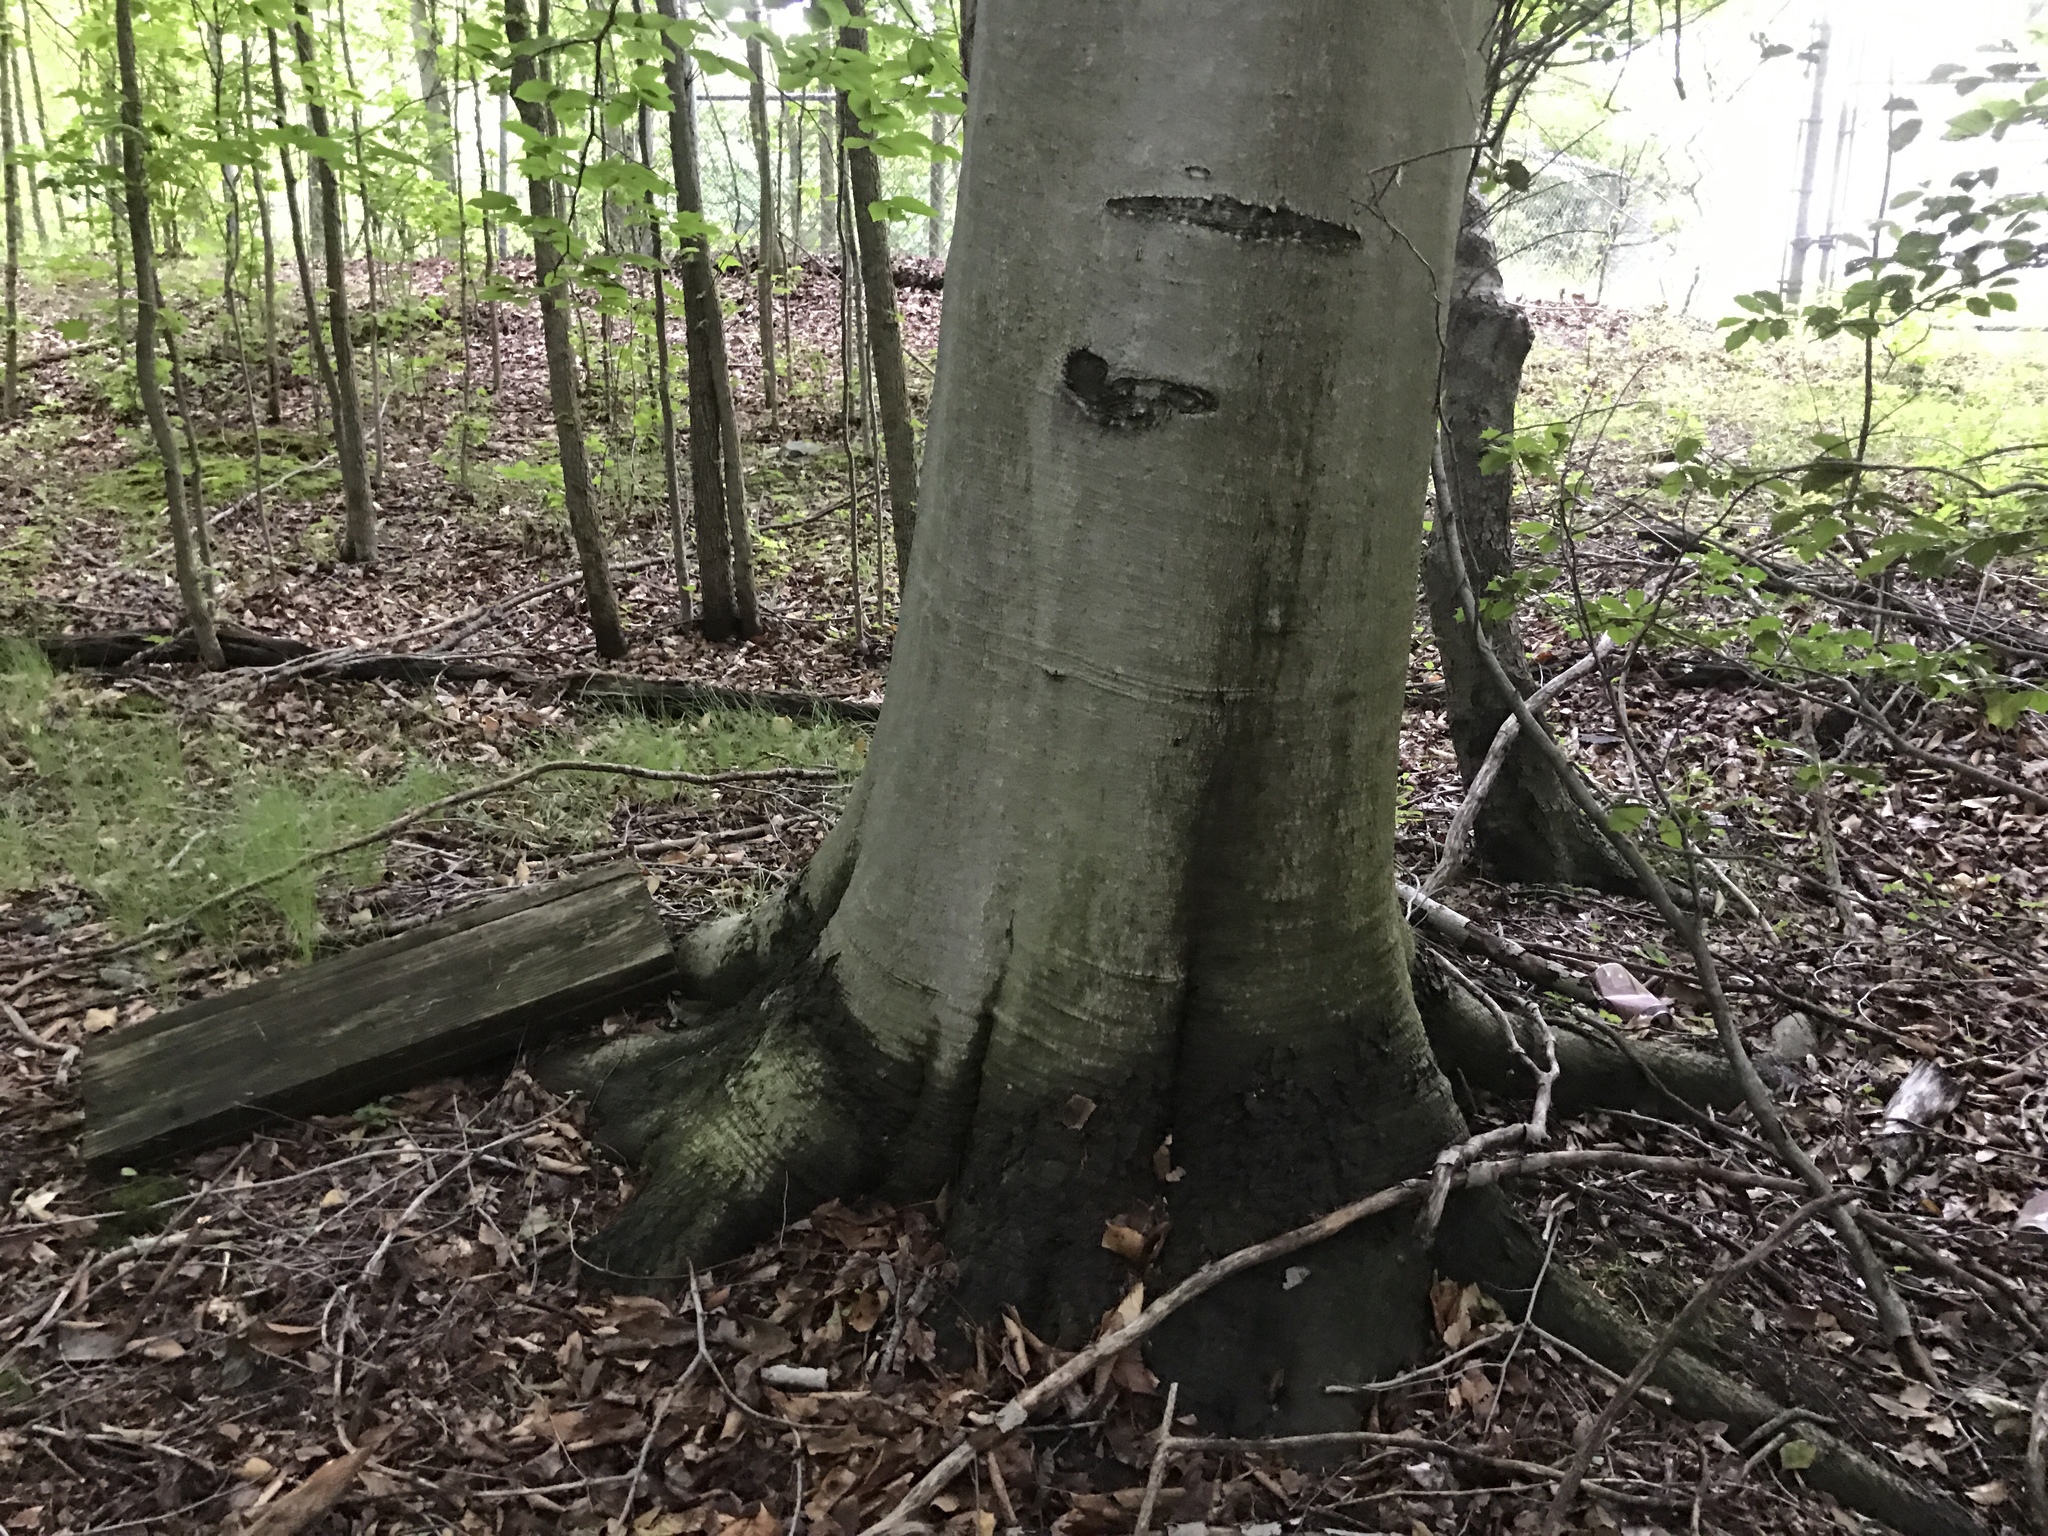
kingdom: Plantae
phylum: Tracheophyta
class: Magnoliopsida
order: Fagales
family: Fagaceae
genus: Fagus
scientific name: Fagus grandifolia
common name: American beech
